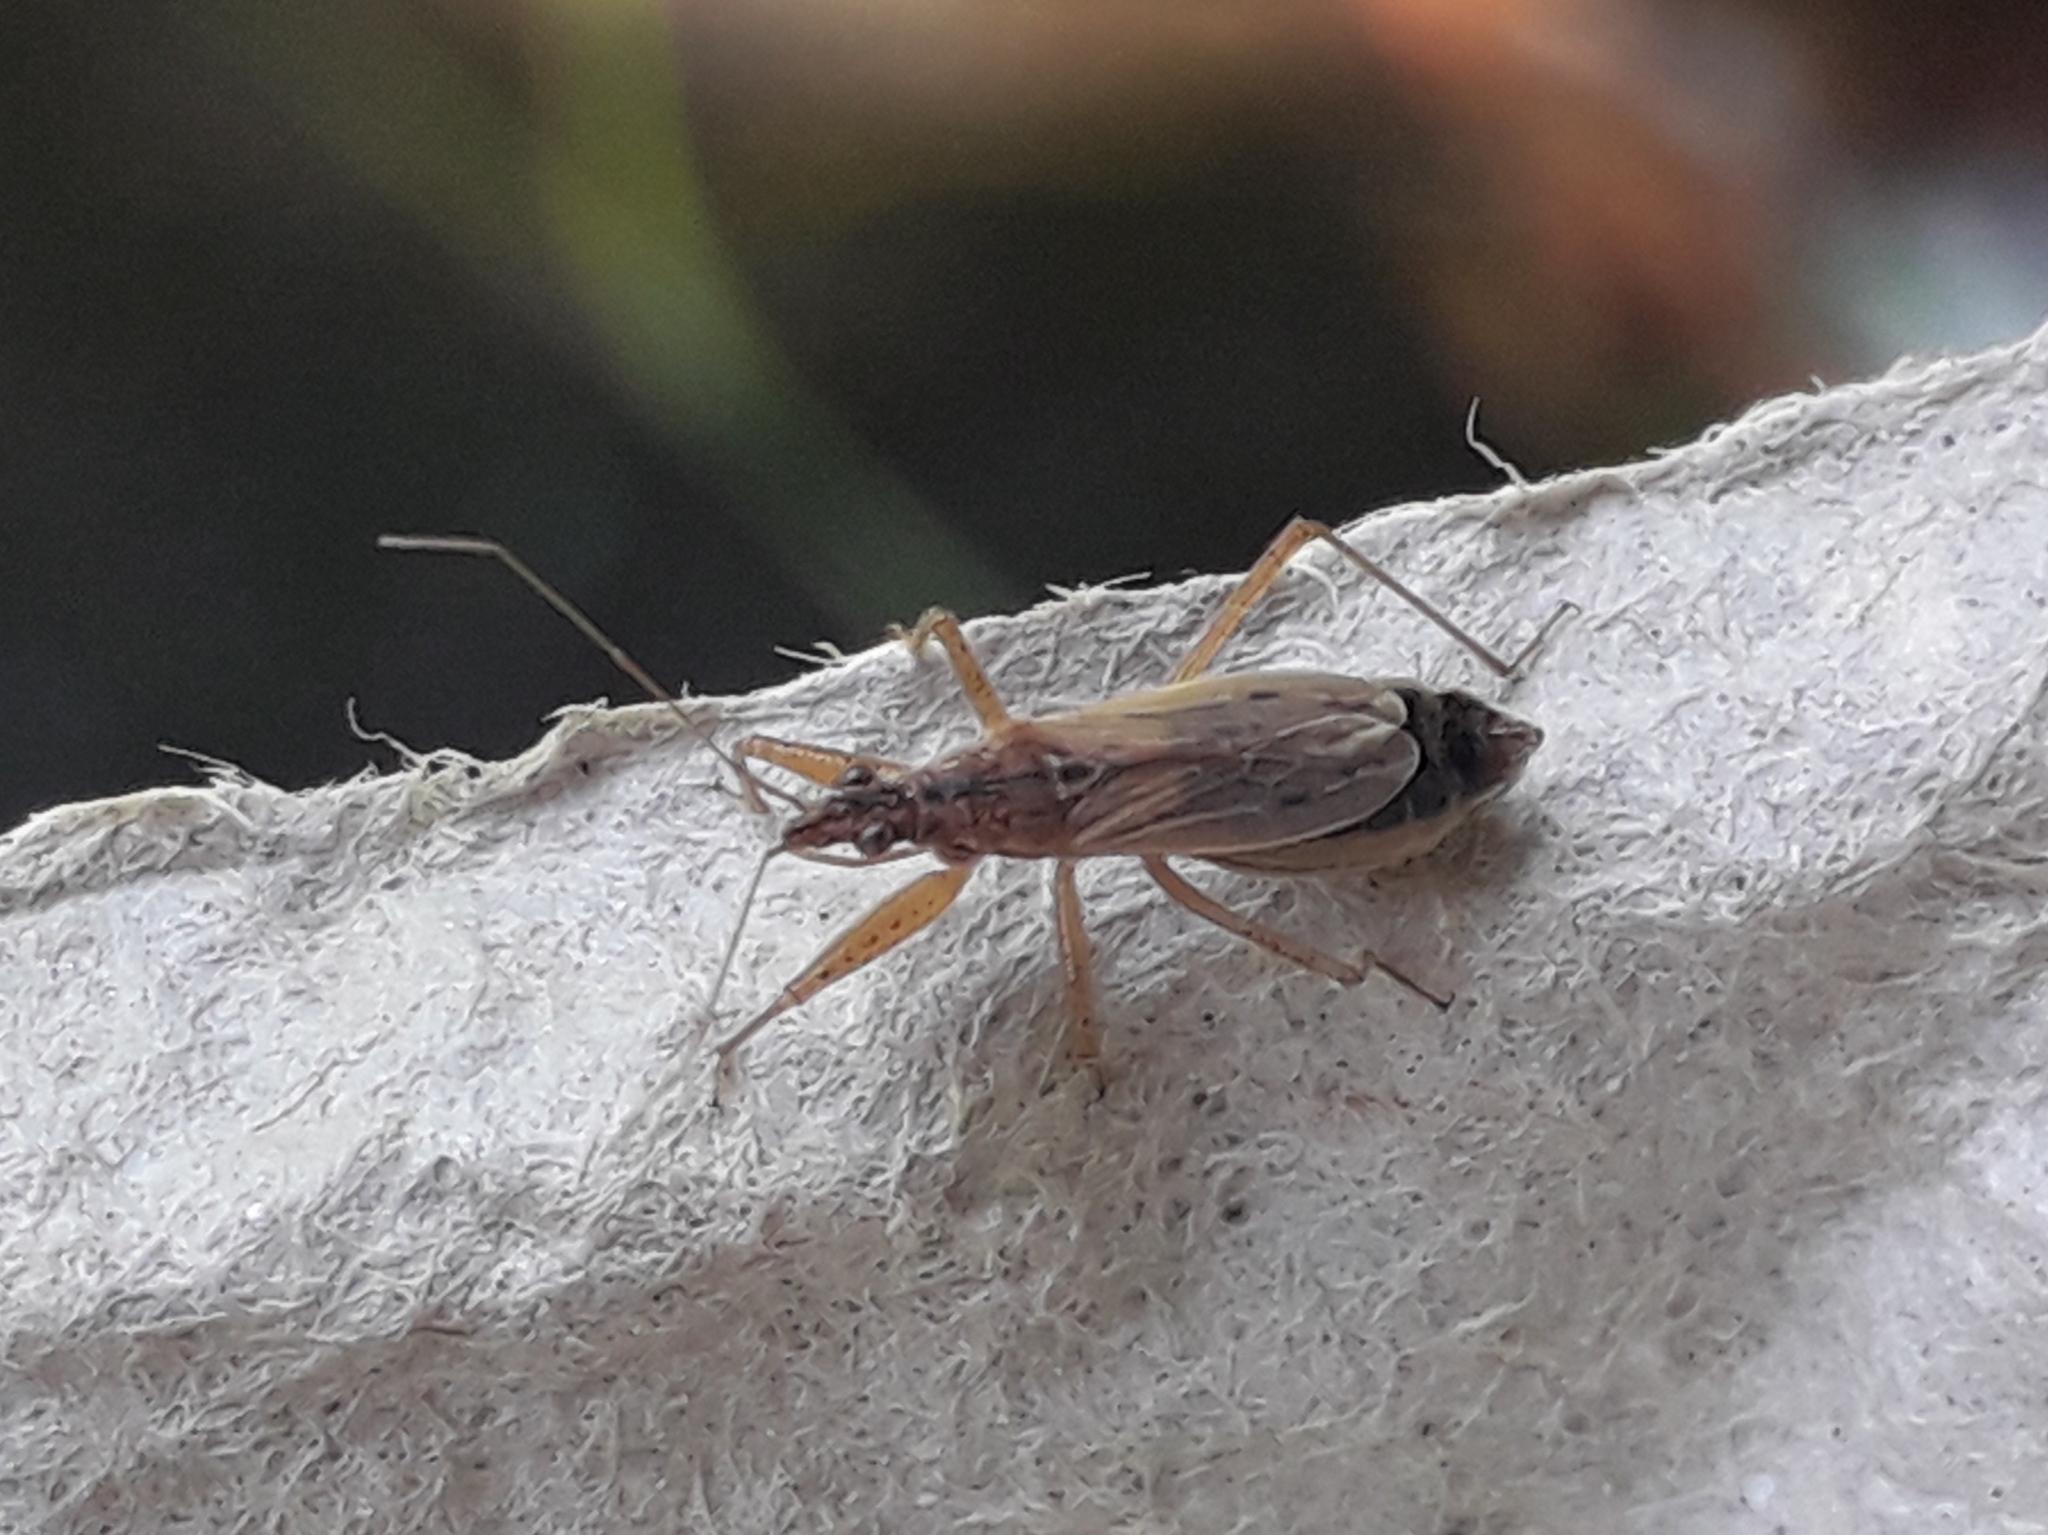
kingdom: Animalia
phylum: Arthropoda
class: Insecta
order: Hemiptera
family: Nabidae
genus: Nabis
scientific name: Nabis
